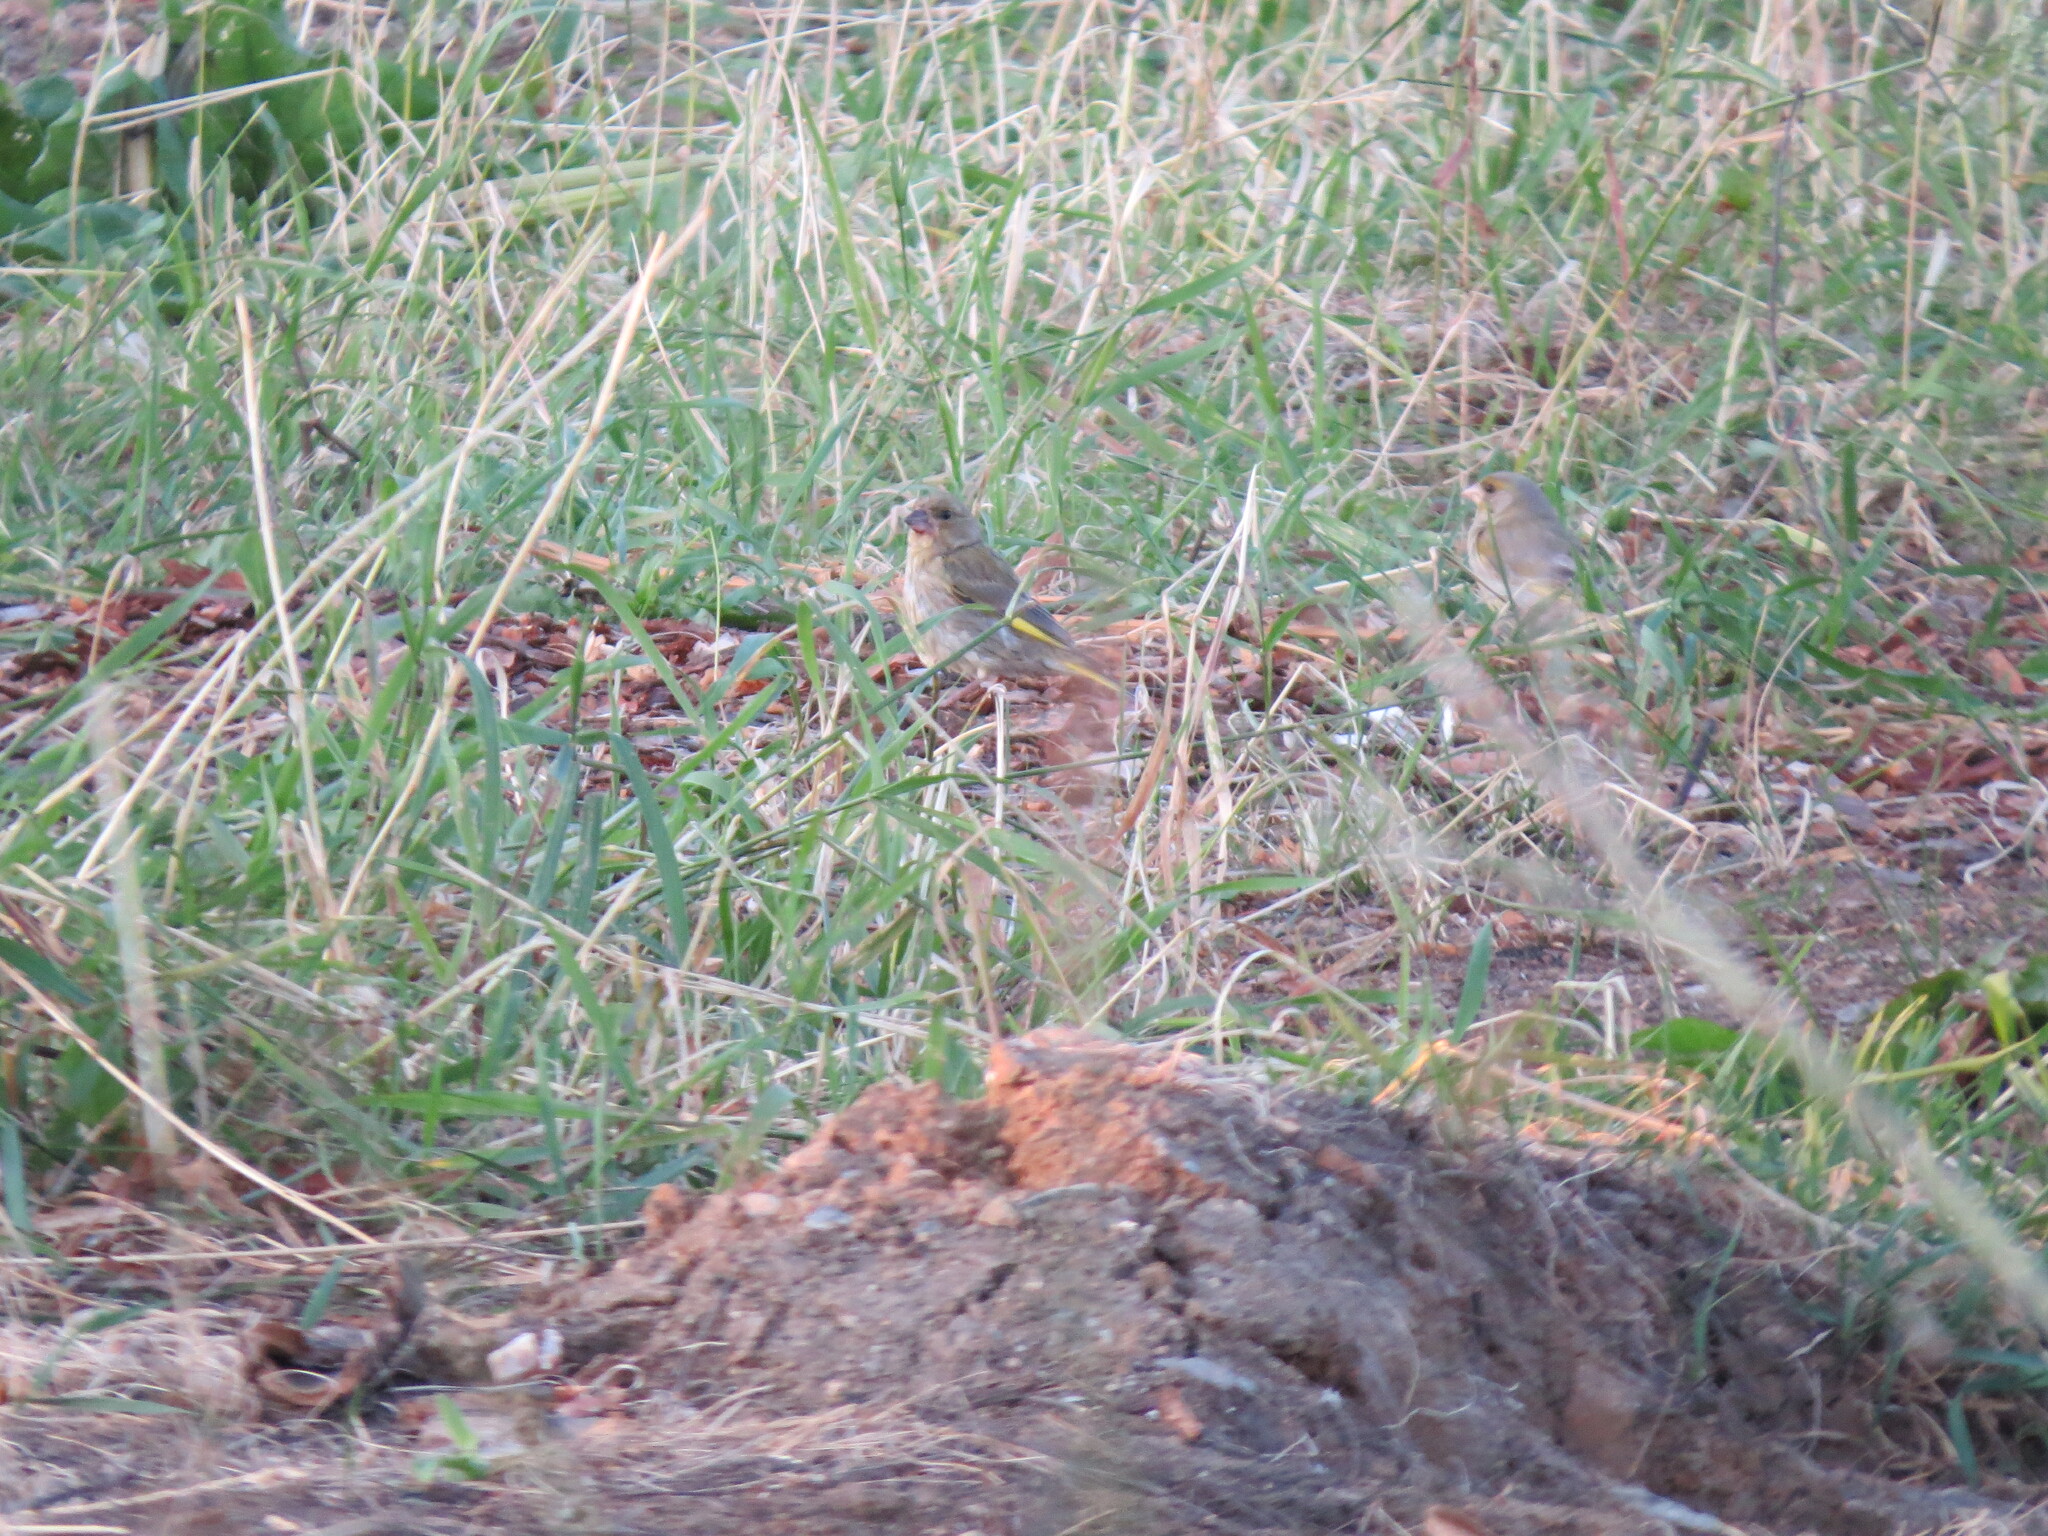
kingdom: Plantae
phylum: Tracheophyta
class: Liliopsida
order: Poales
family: Poaceae
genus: Chloris
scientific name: Chloris chloris
